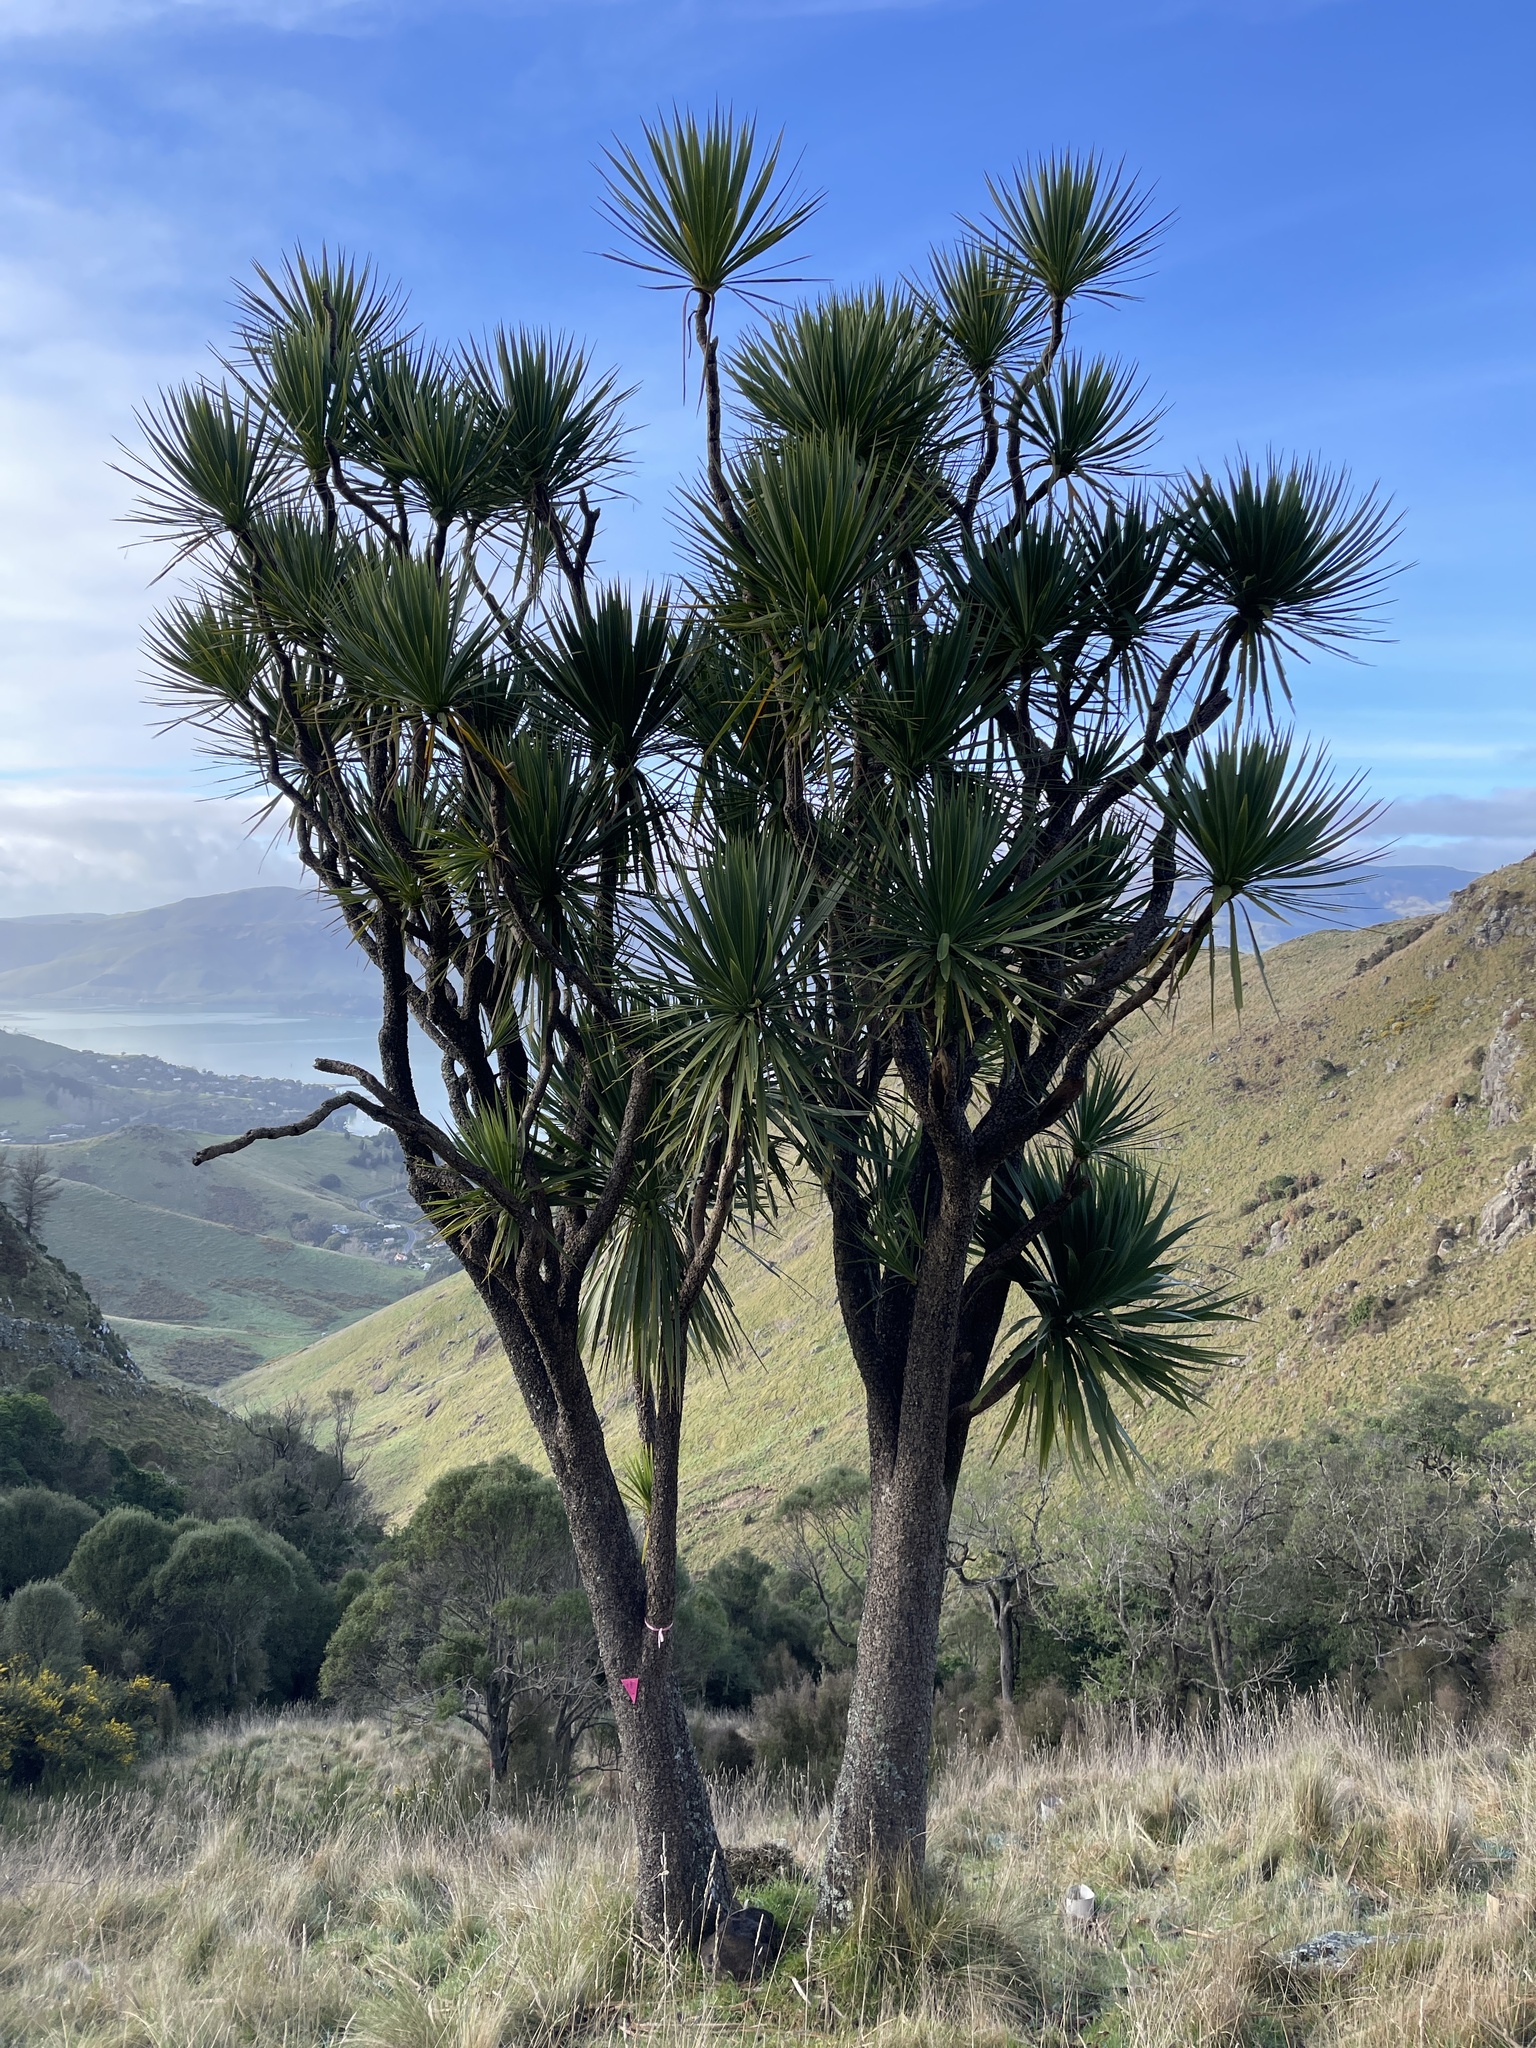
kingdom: Plantae
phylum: Tracheophyta
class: Liliopsida
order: Asparagales
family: Asparagaceae
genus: Cordyline
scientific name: Cordyline australis
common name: Cabbage-palm
